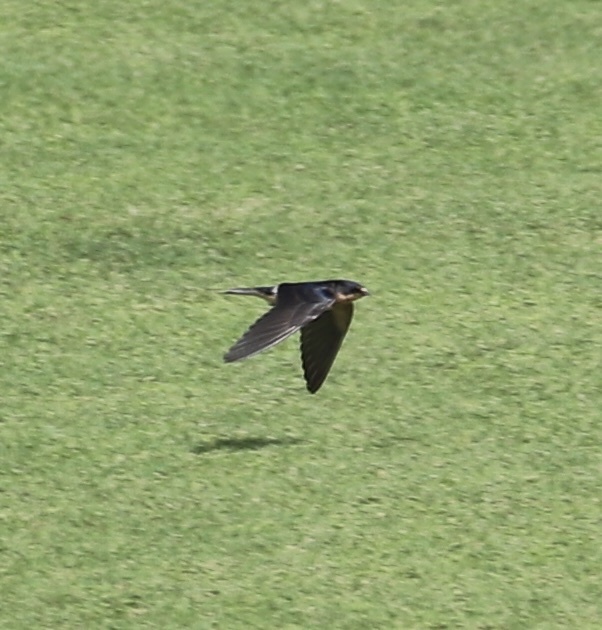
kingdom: Animalia
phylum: Chordata
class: Aves
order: Passeriformes
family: Hirundinidae
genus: Hirundo
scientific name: Hirundo rustica
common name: Barn swallow
